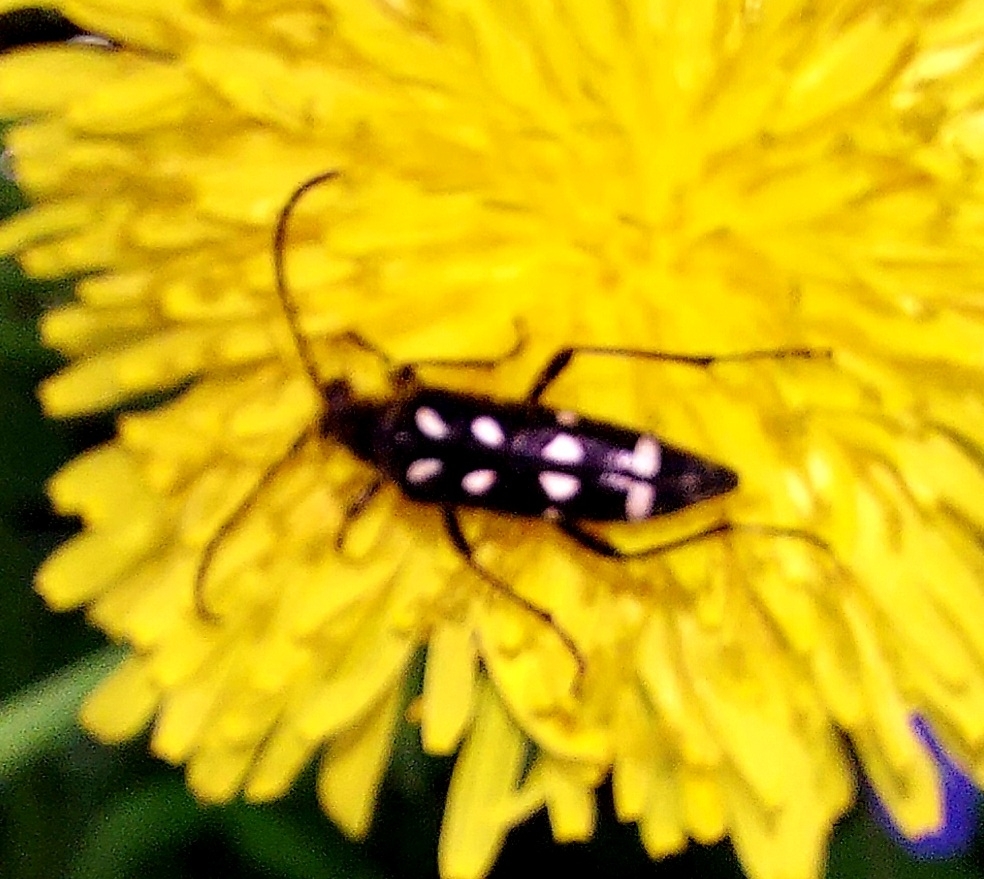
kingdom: Animalia
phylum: Arthropoda
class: Insecta
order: Coleoptera
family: Cerambycidae
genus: Leptura
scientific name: Leptura duodecimguttata
